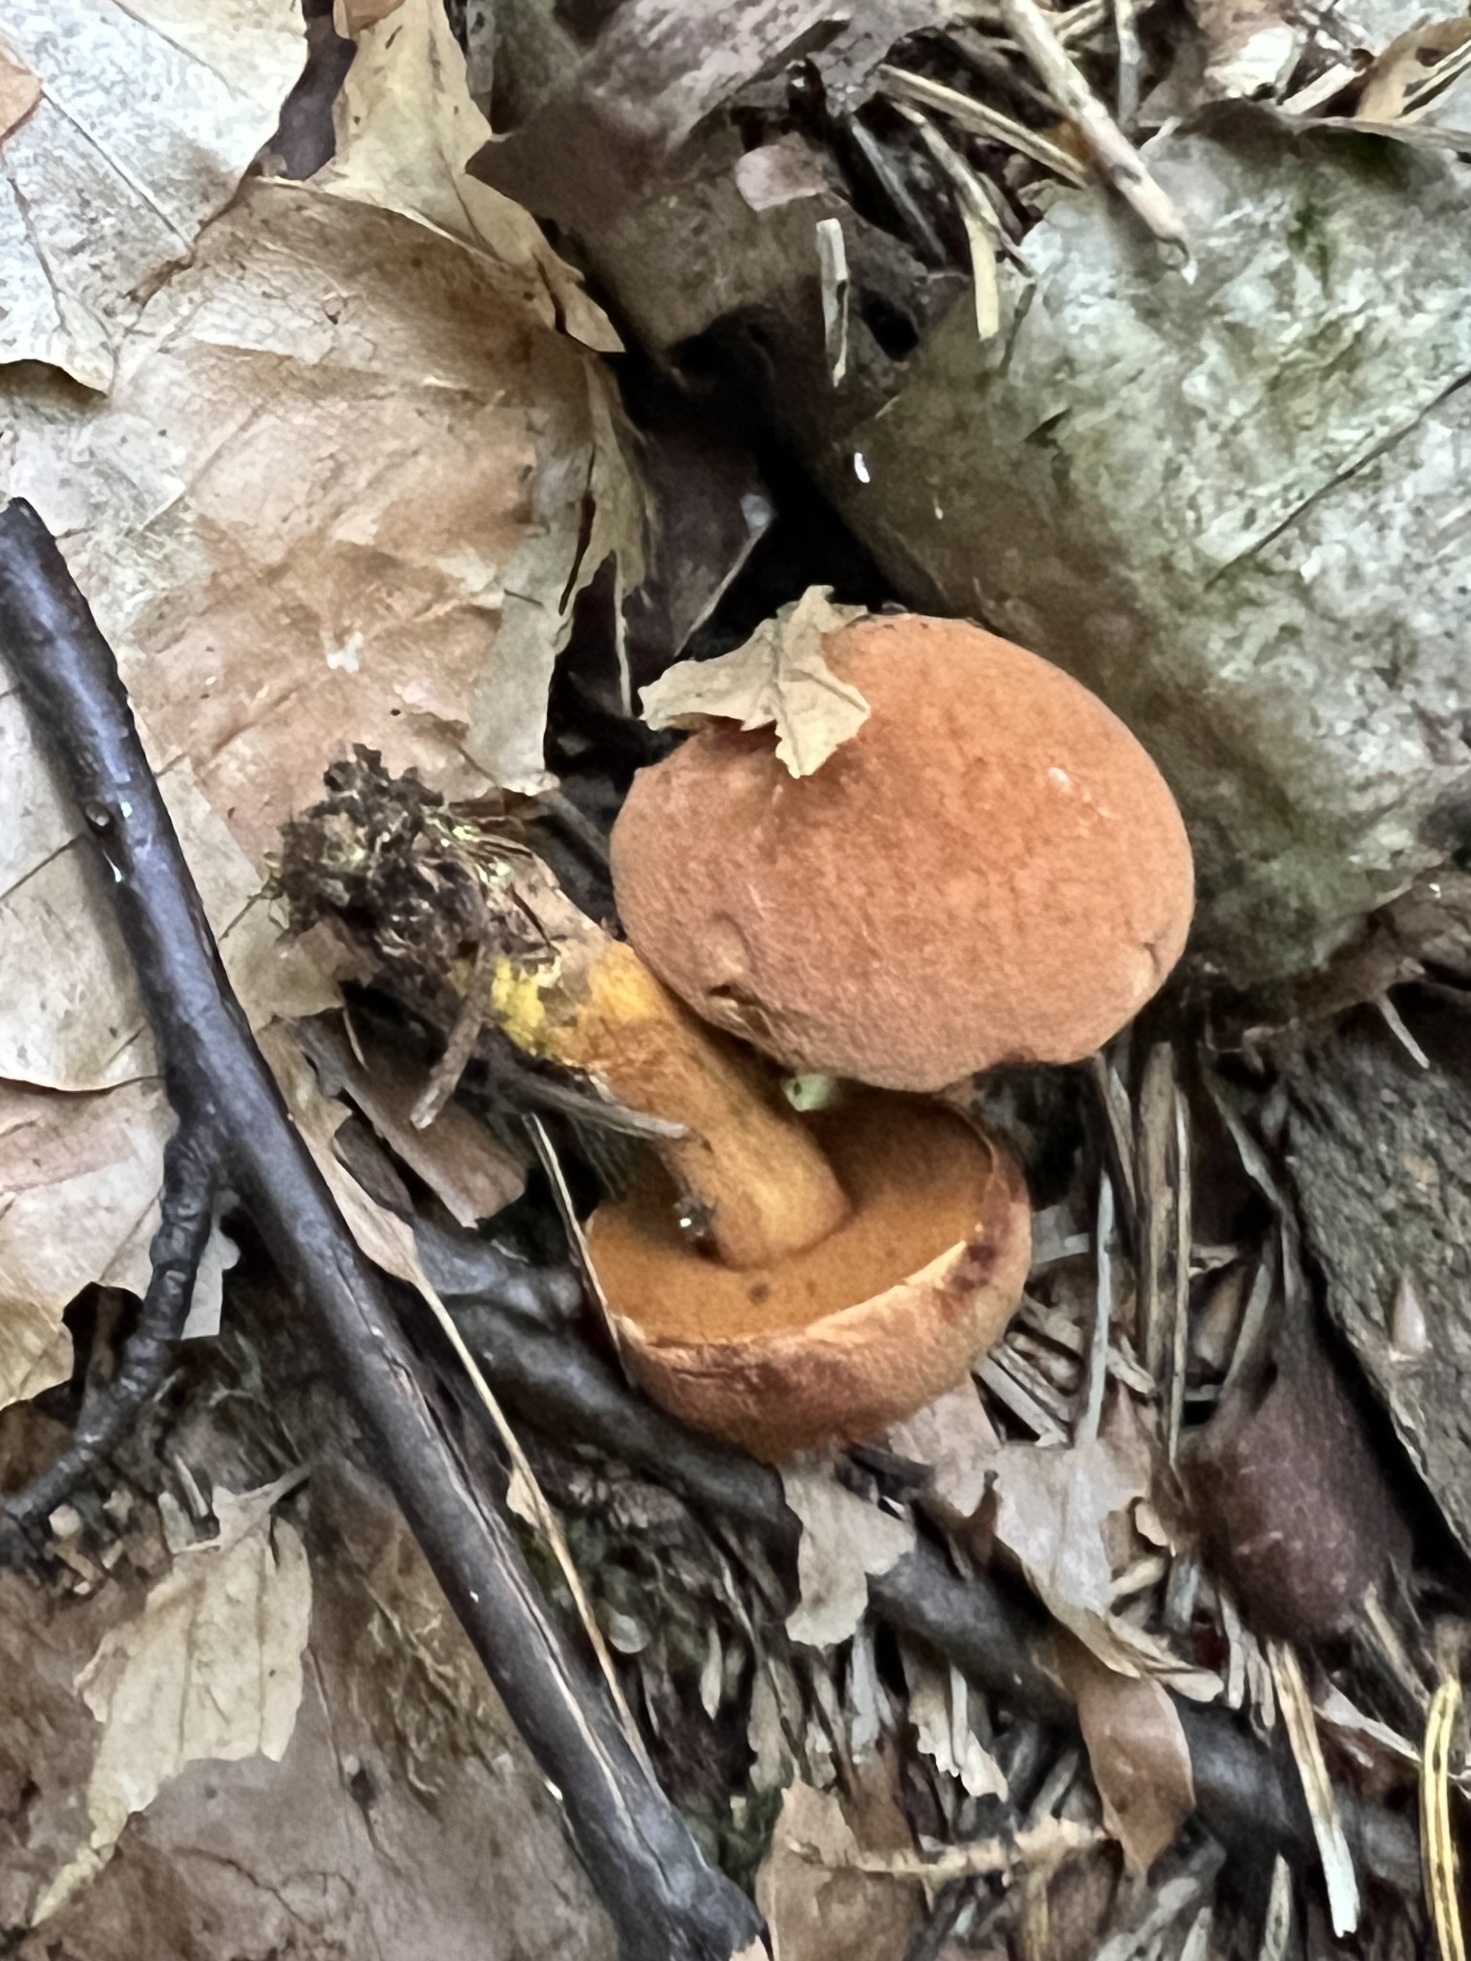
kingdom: Fungi
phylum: Basidiomycota
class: Agaricomycetes
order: Boletales
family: Boletaceae
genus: Chalciporus
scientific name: Chalciporus piperatus
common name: Peppery bolete
